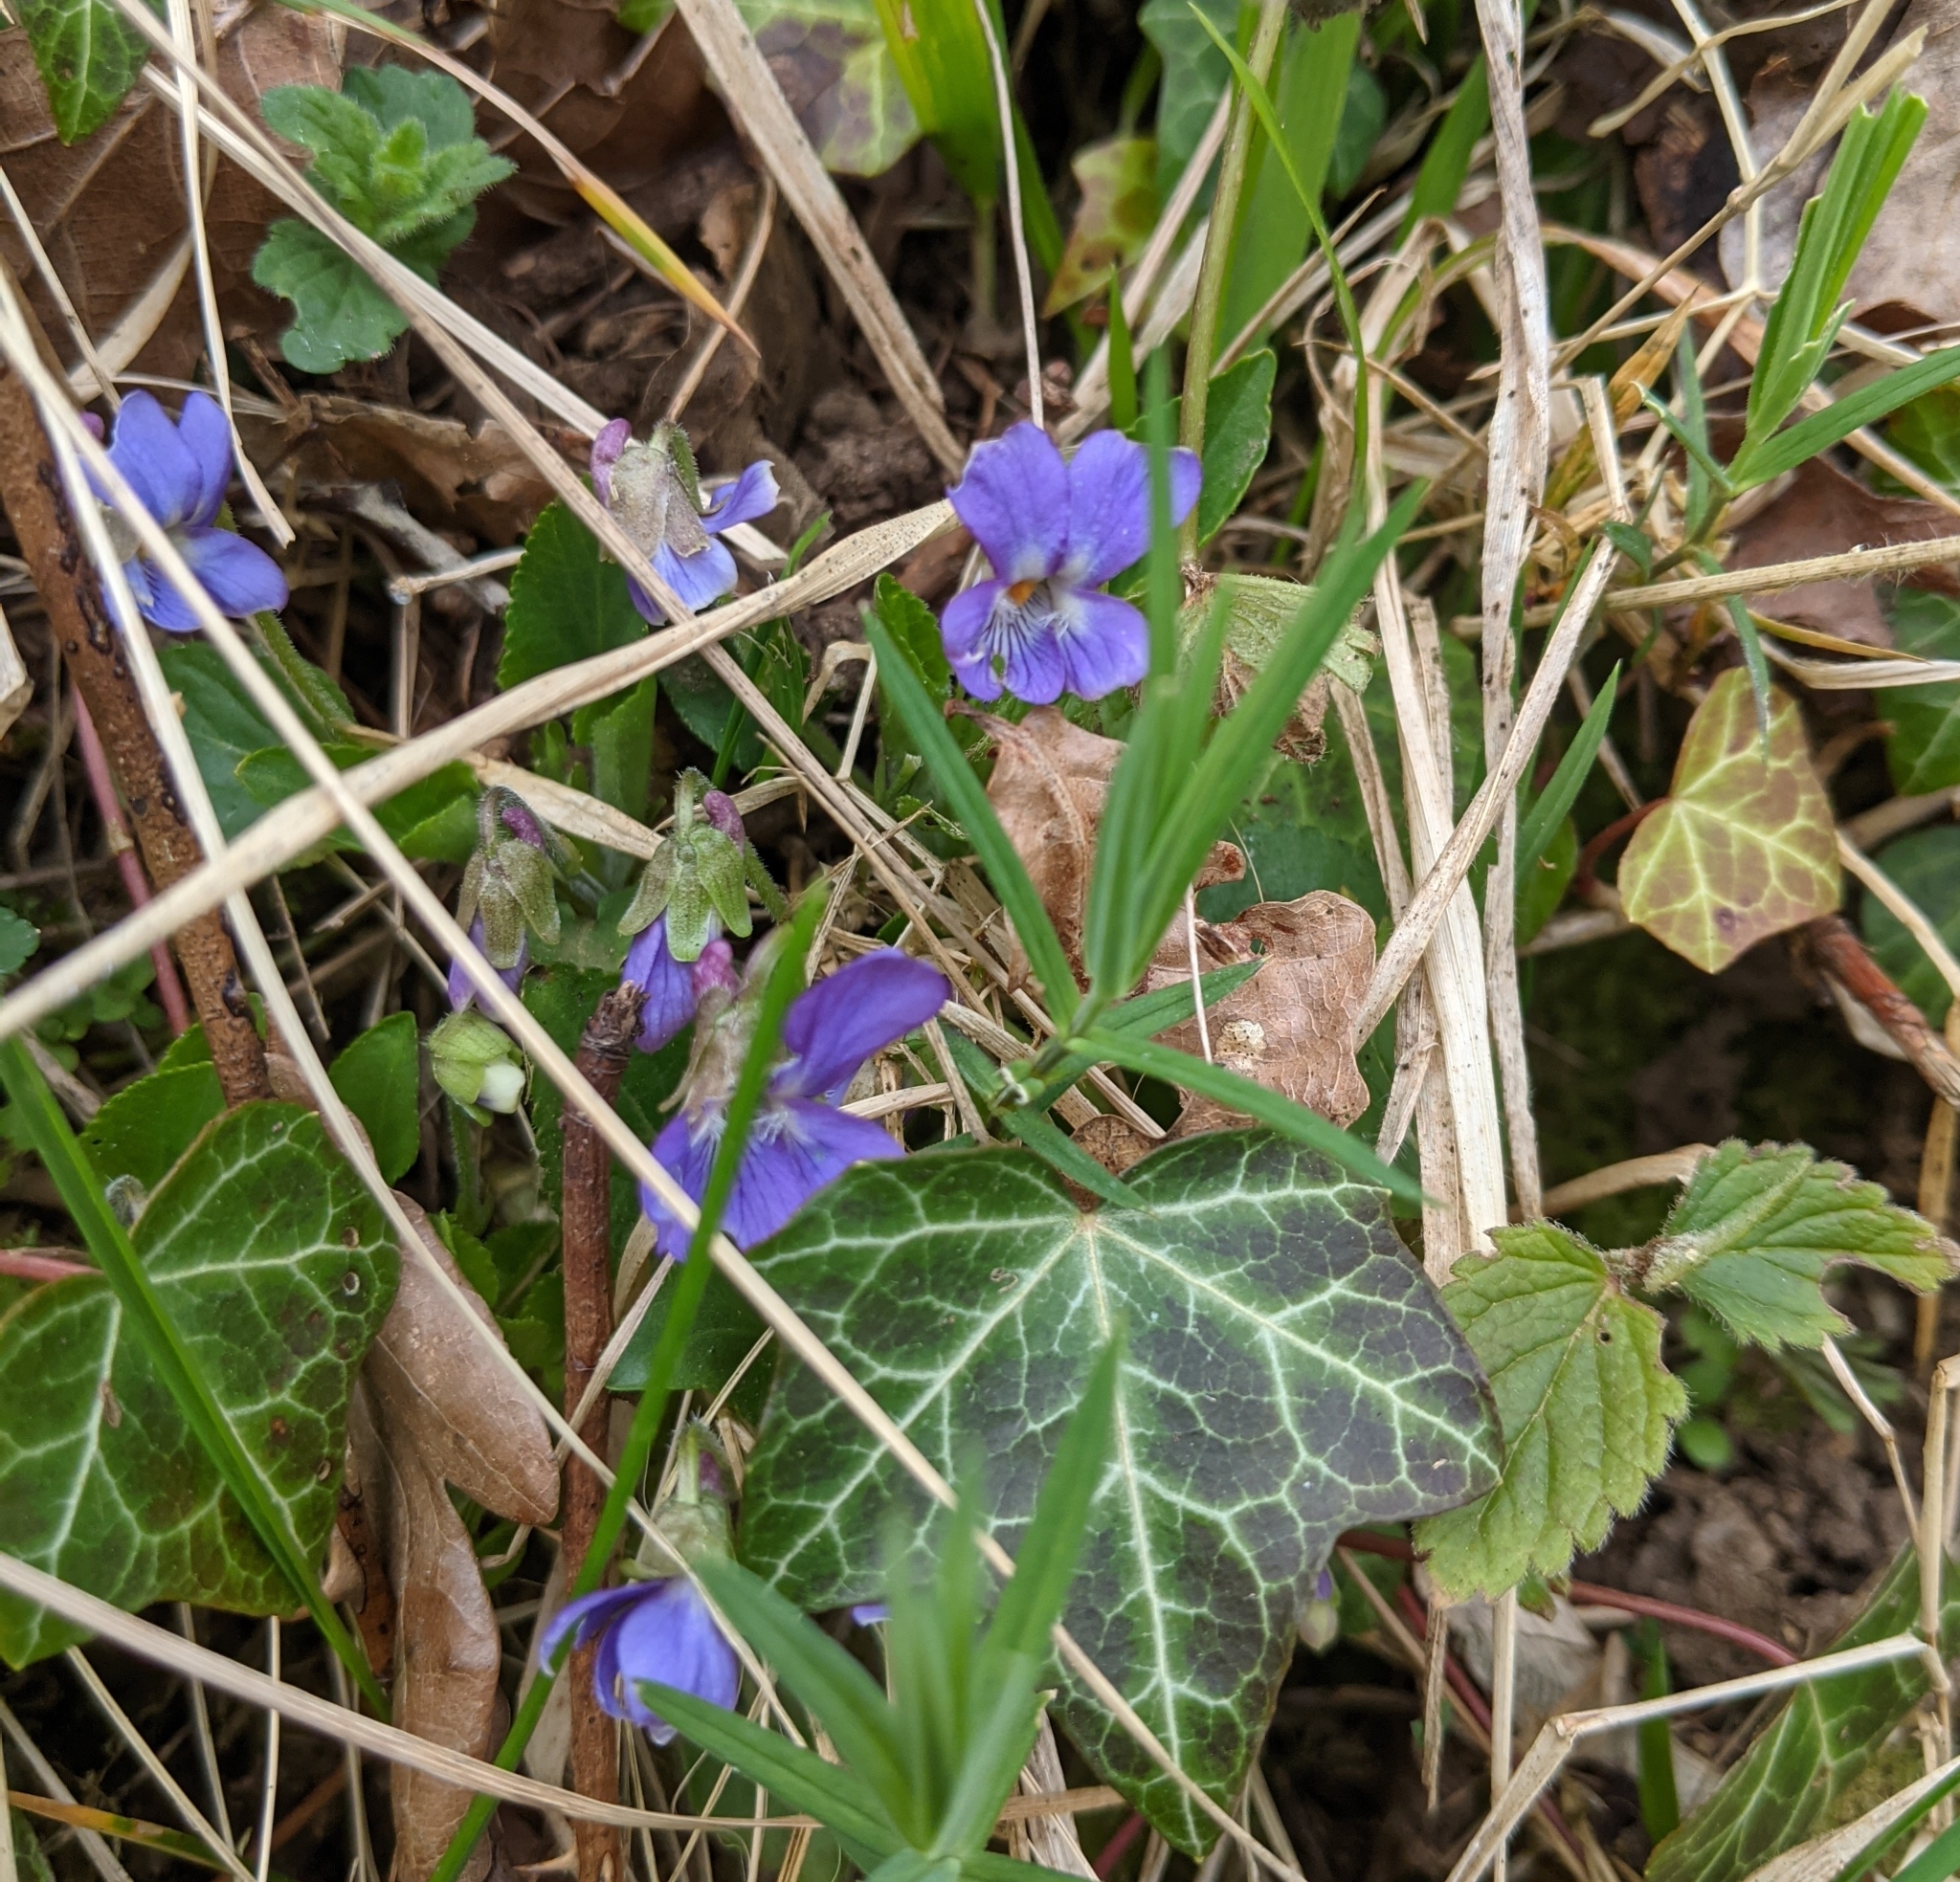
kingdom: Plantae
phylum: Tracheophyta
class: Magnoliopsida
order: Malpighiales
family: Violaceae
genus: Viola
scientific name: Viola hirta
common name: Hairy violet
